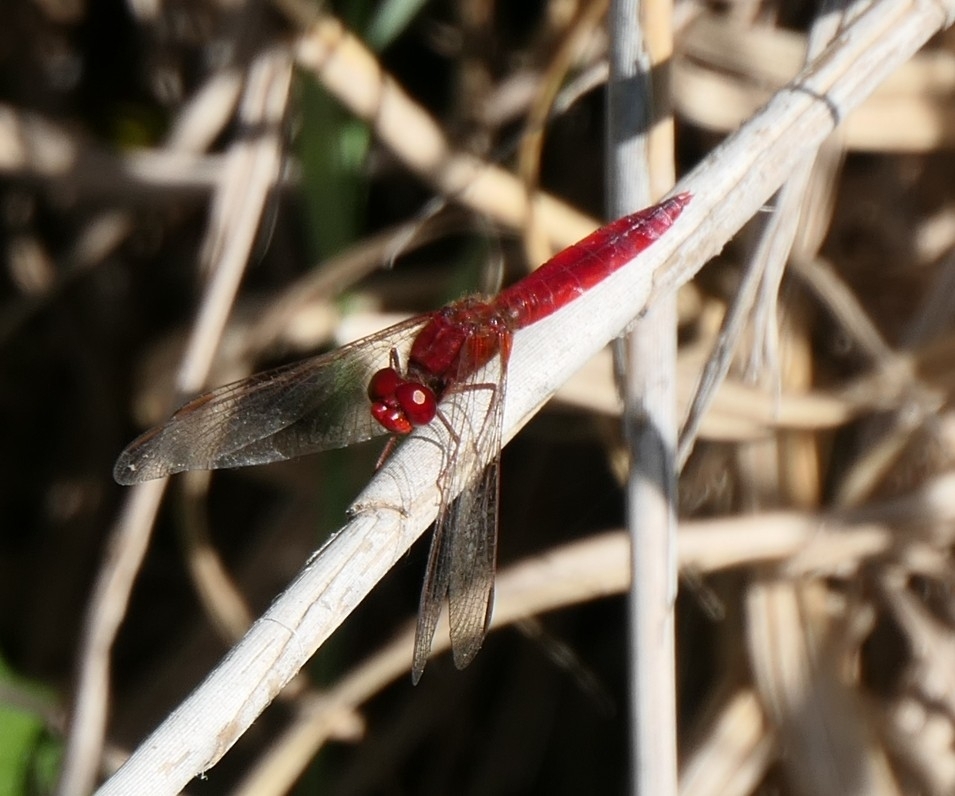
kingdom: Animalia
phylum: Arthropoda
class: Insecta
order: Odonata
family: Libellulidae
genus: Crocothemis
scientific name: Crocothemis erythraea
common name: Scarlet dragonfly
